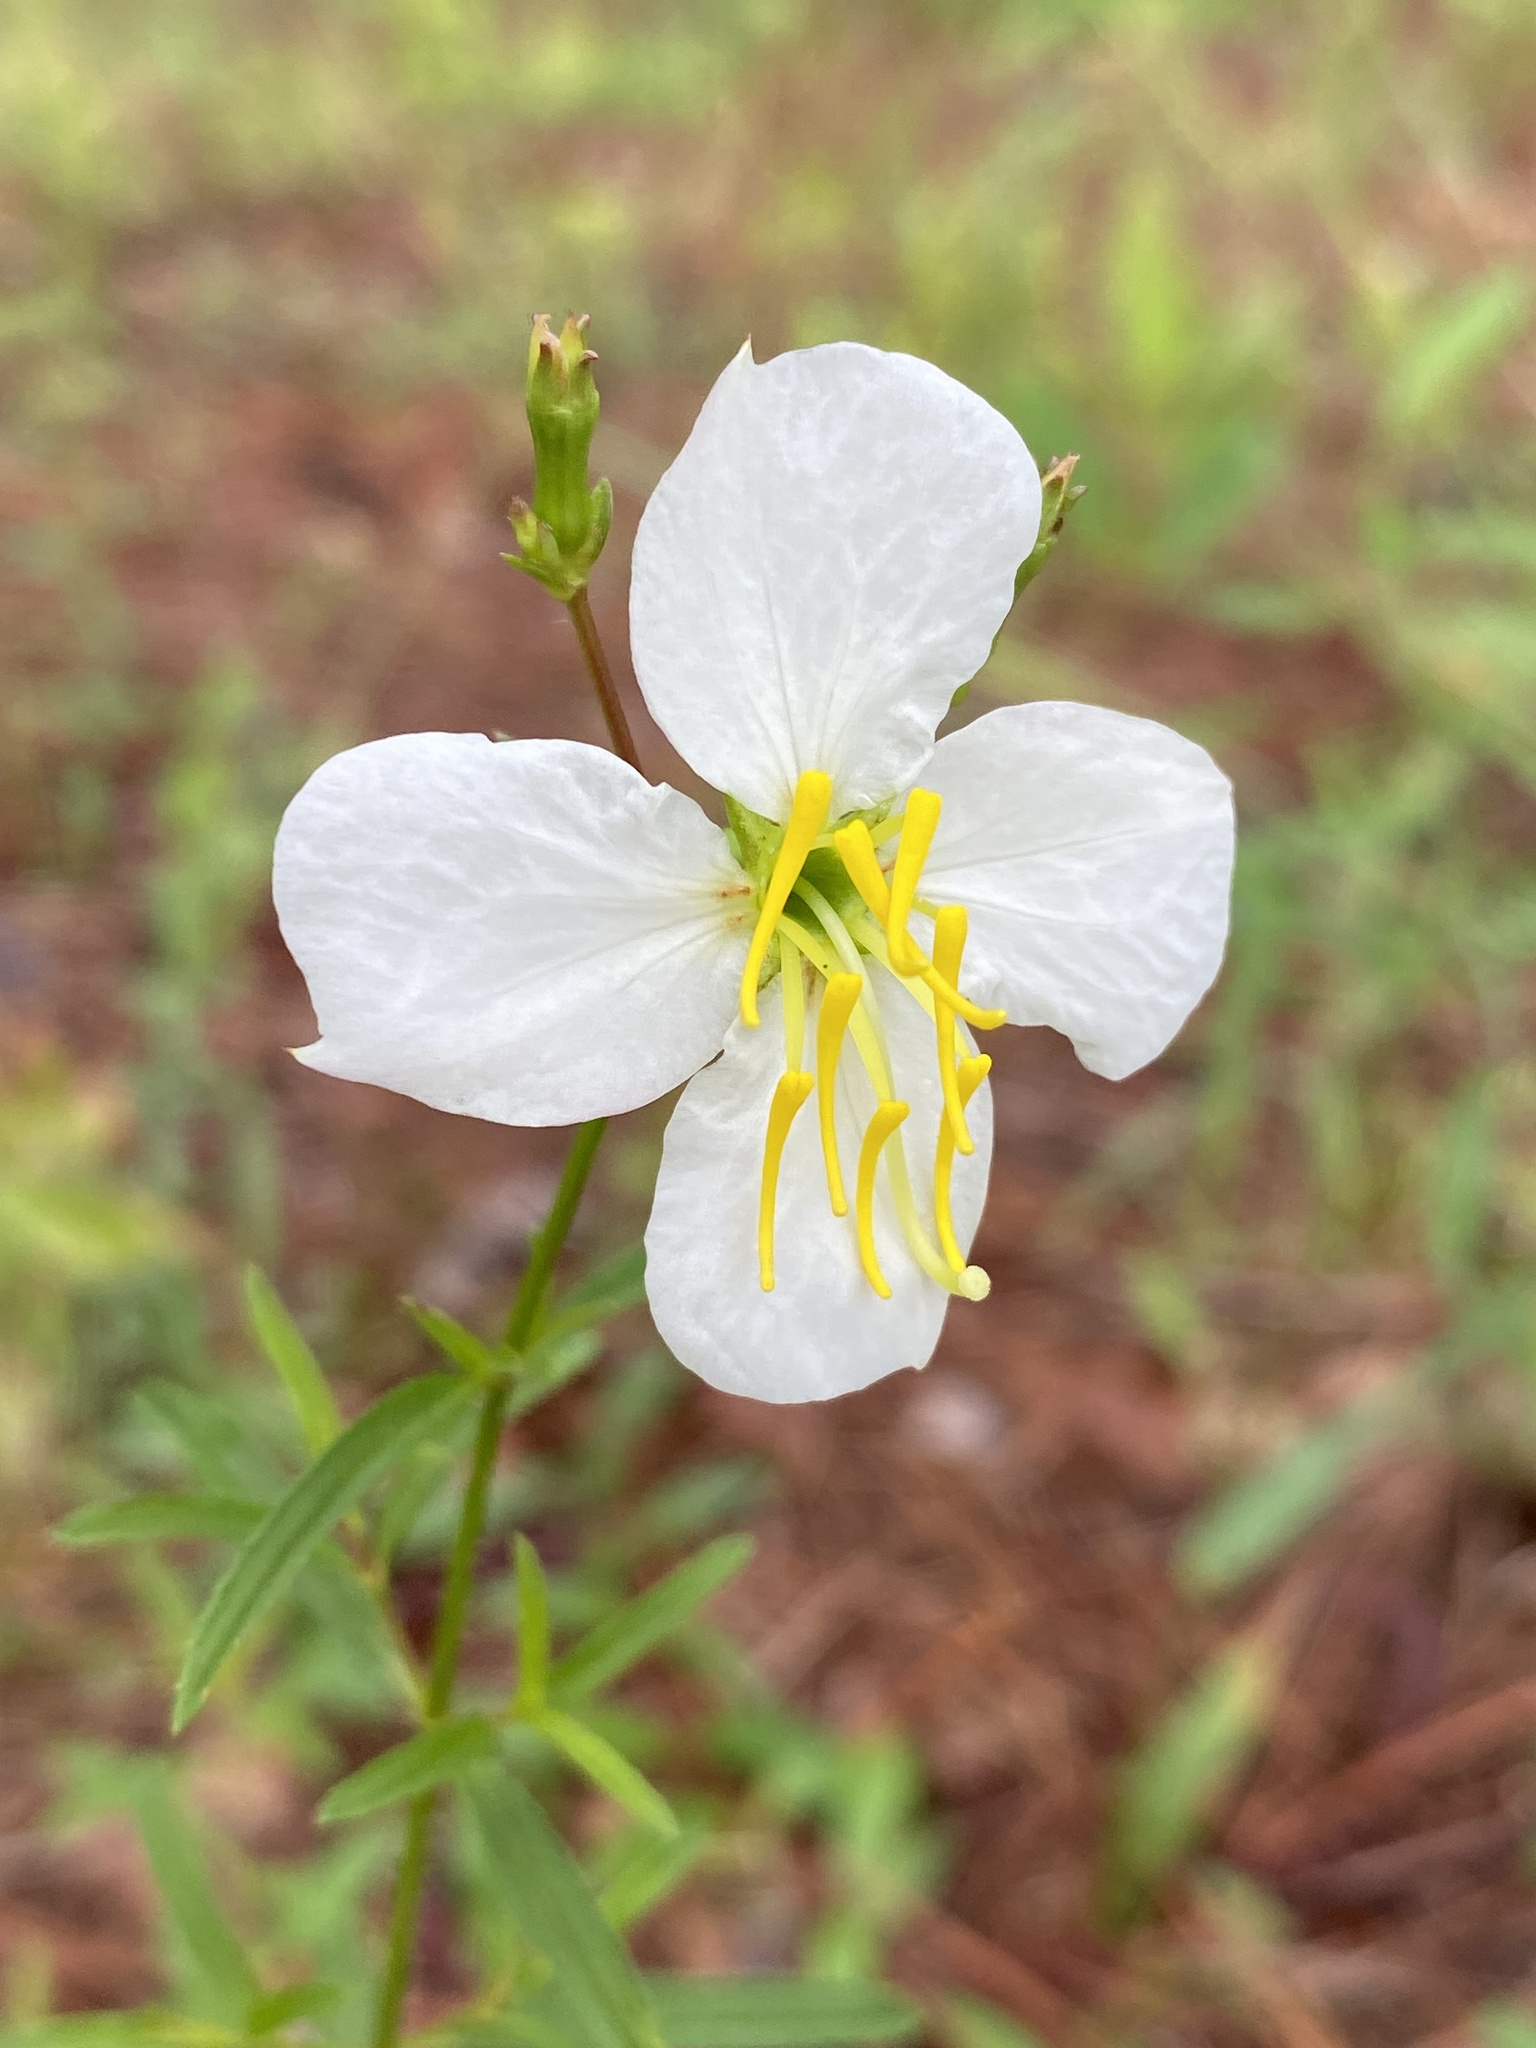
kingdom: Plantae
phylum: Tracheophyta
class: Magnoliopsida
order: Myrtales
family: Melastomataceae
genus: Rhexia
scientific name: Rhexia mariana
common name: Dull meadow-pitcher
